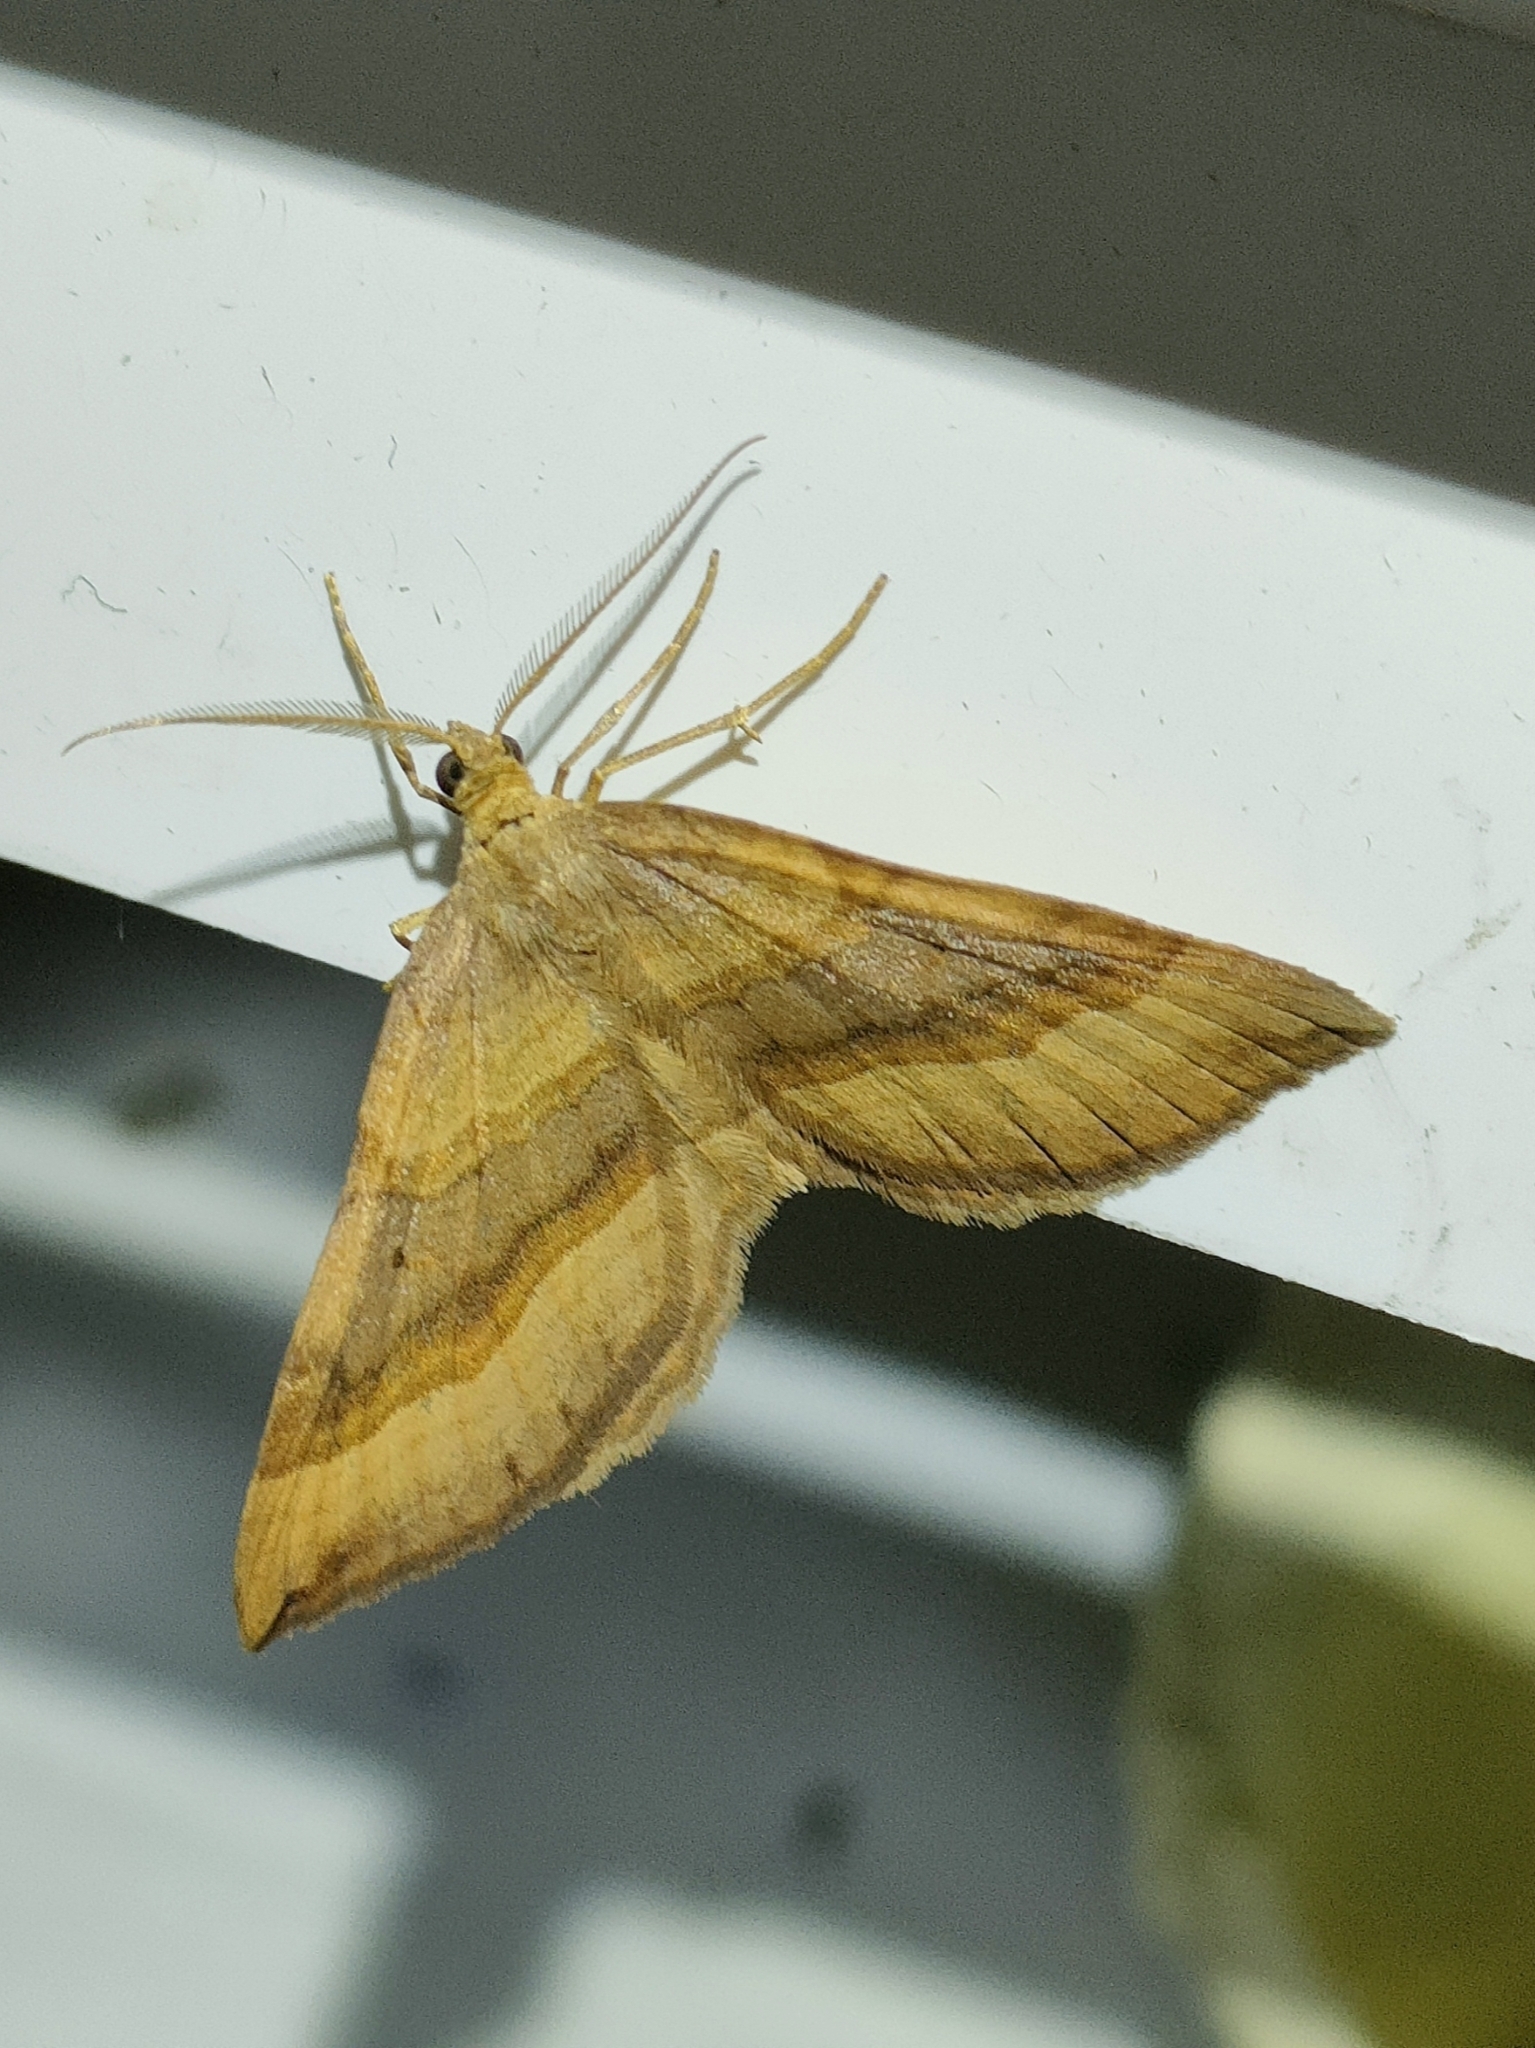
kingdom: Animalia
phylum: Arthropoda
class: Insecta
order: Lepidoptera
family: Geometridae
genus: Scotopteryx
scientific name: Scotopteryx chenopodiata
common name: Shaded broad-bar
